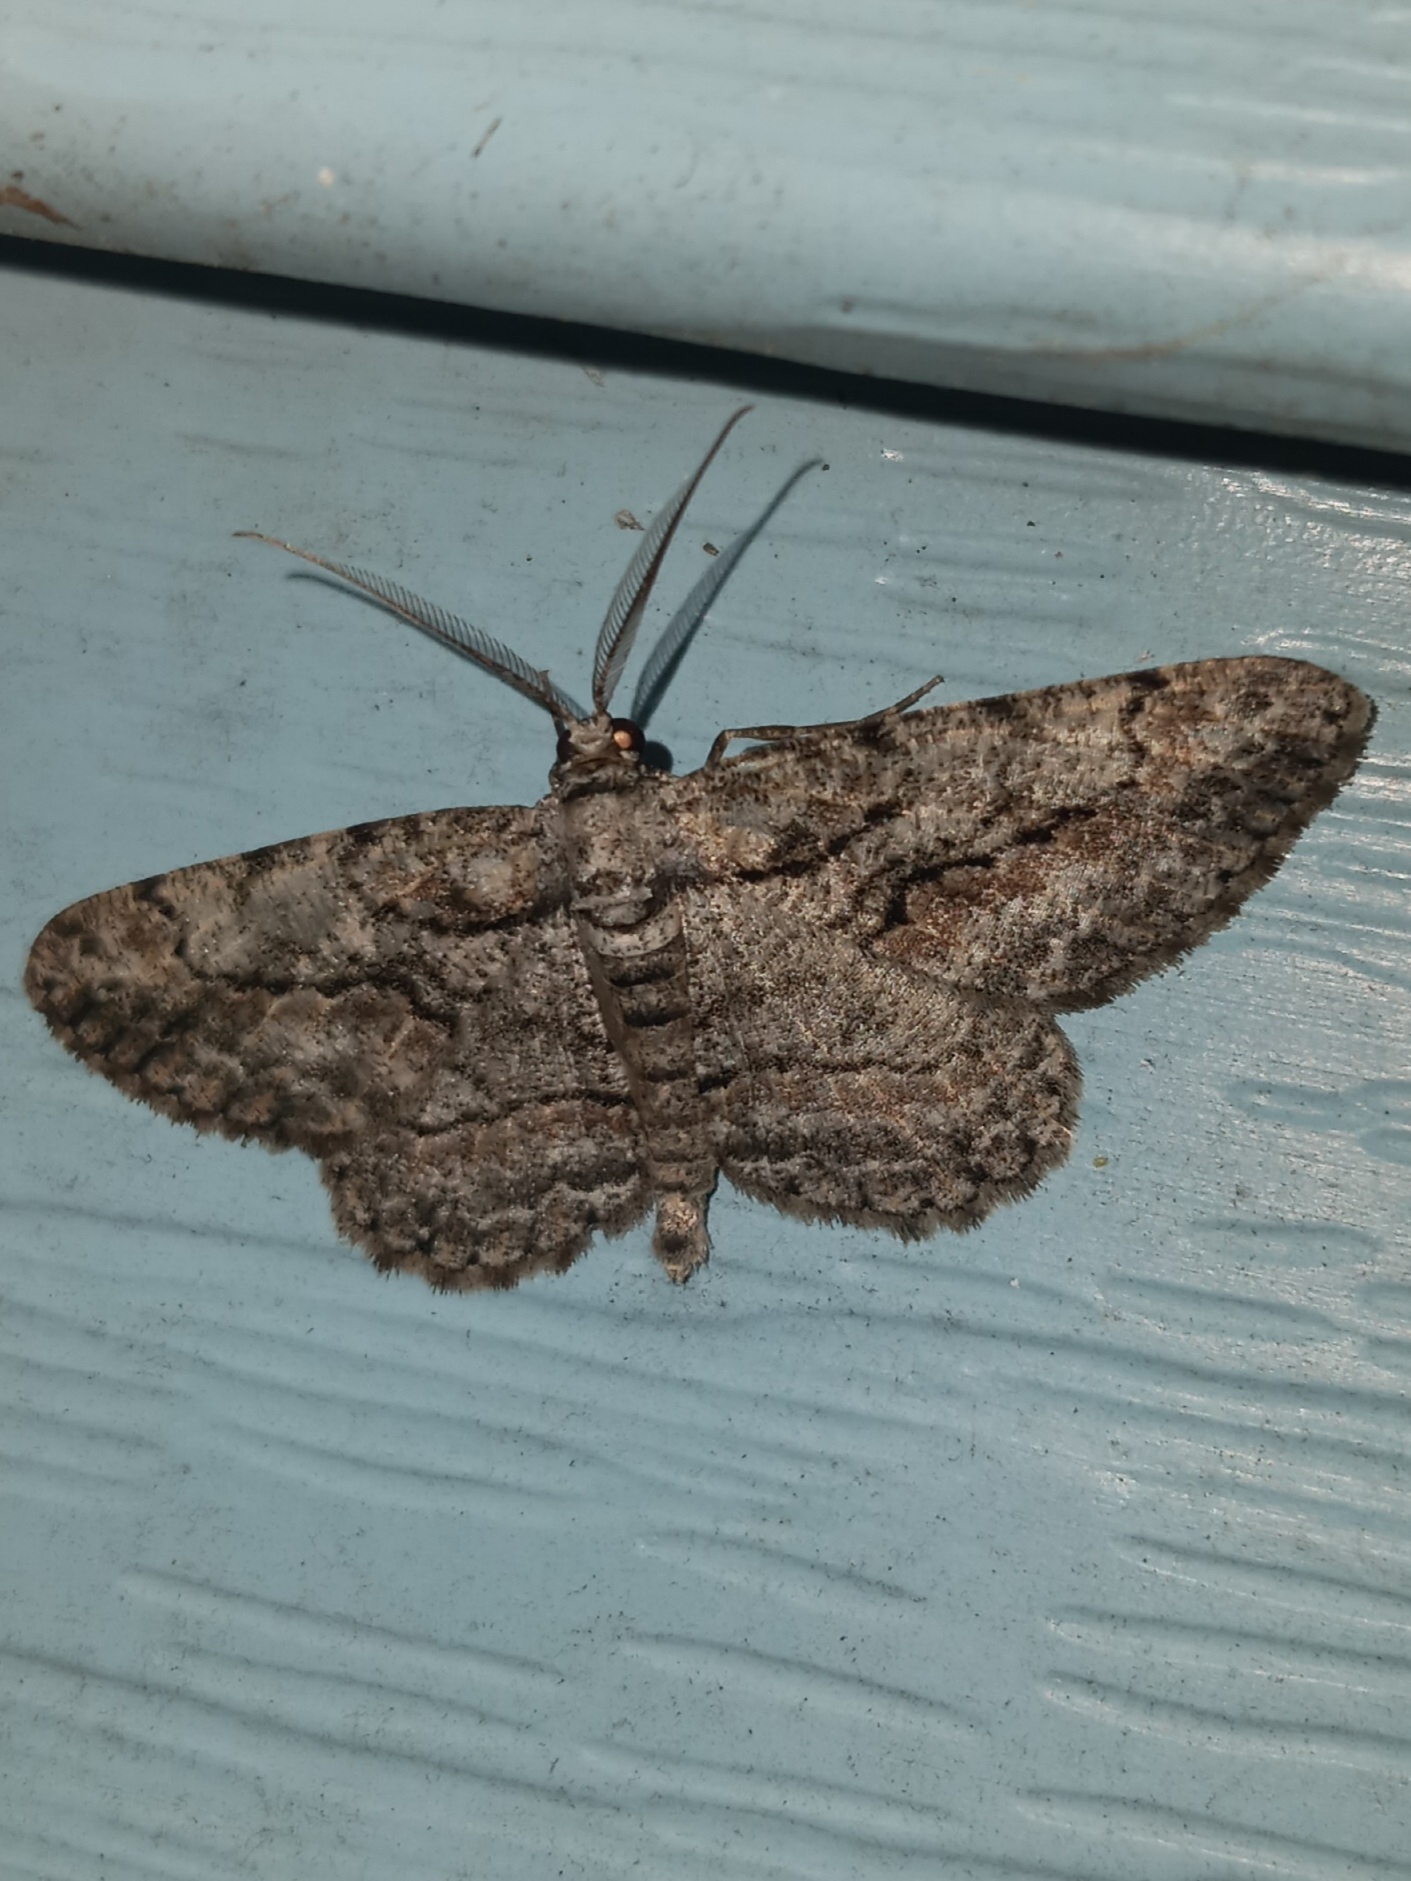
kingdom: Animalia
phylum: Arthropoda
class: Insecta
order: Lepidoptera
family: Geometridae
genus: Anavitrinella
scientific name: Anavitrinella pampinaria
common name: Common gray
